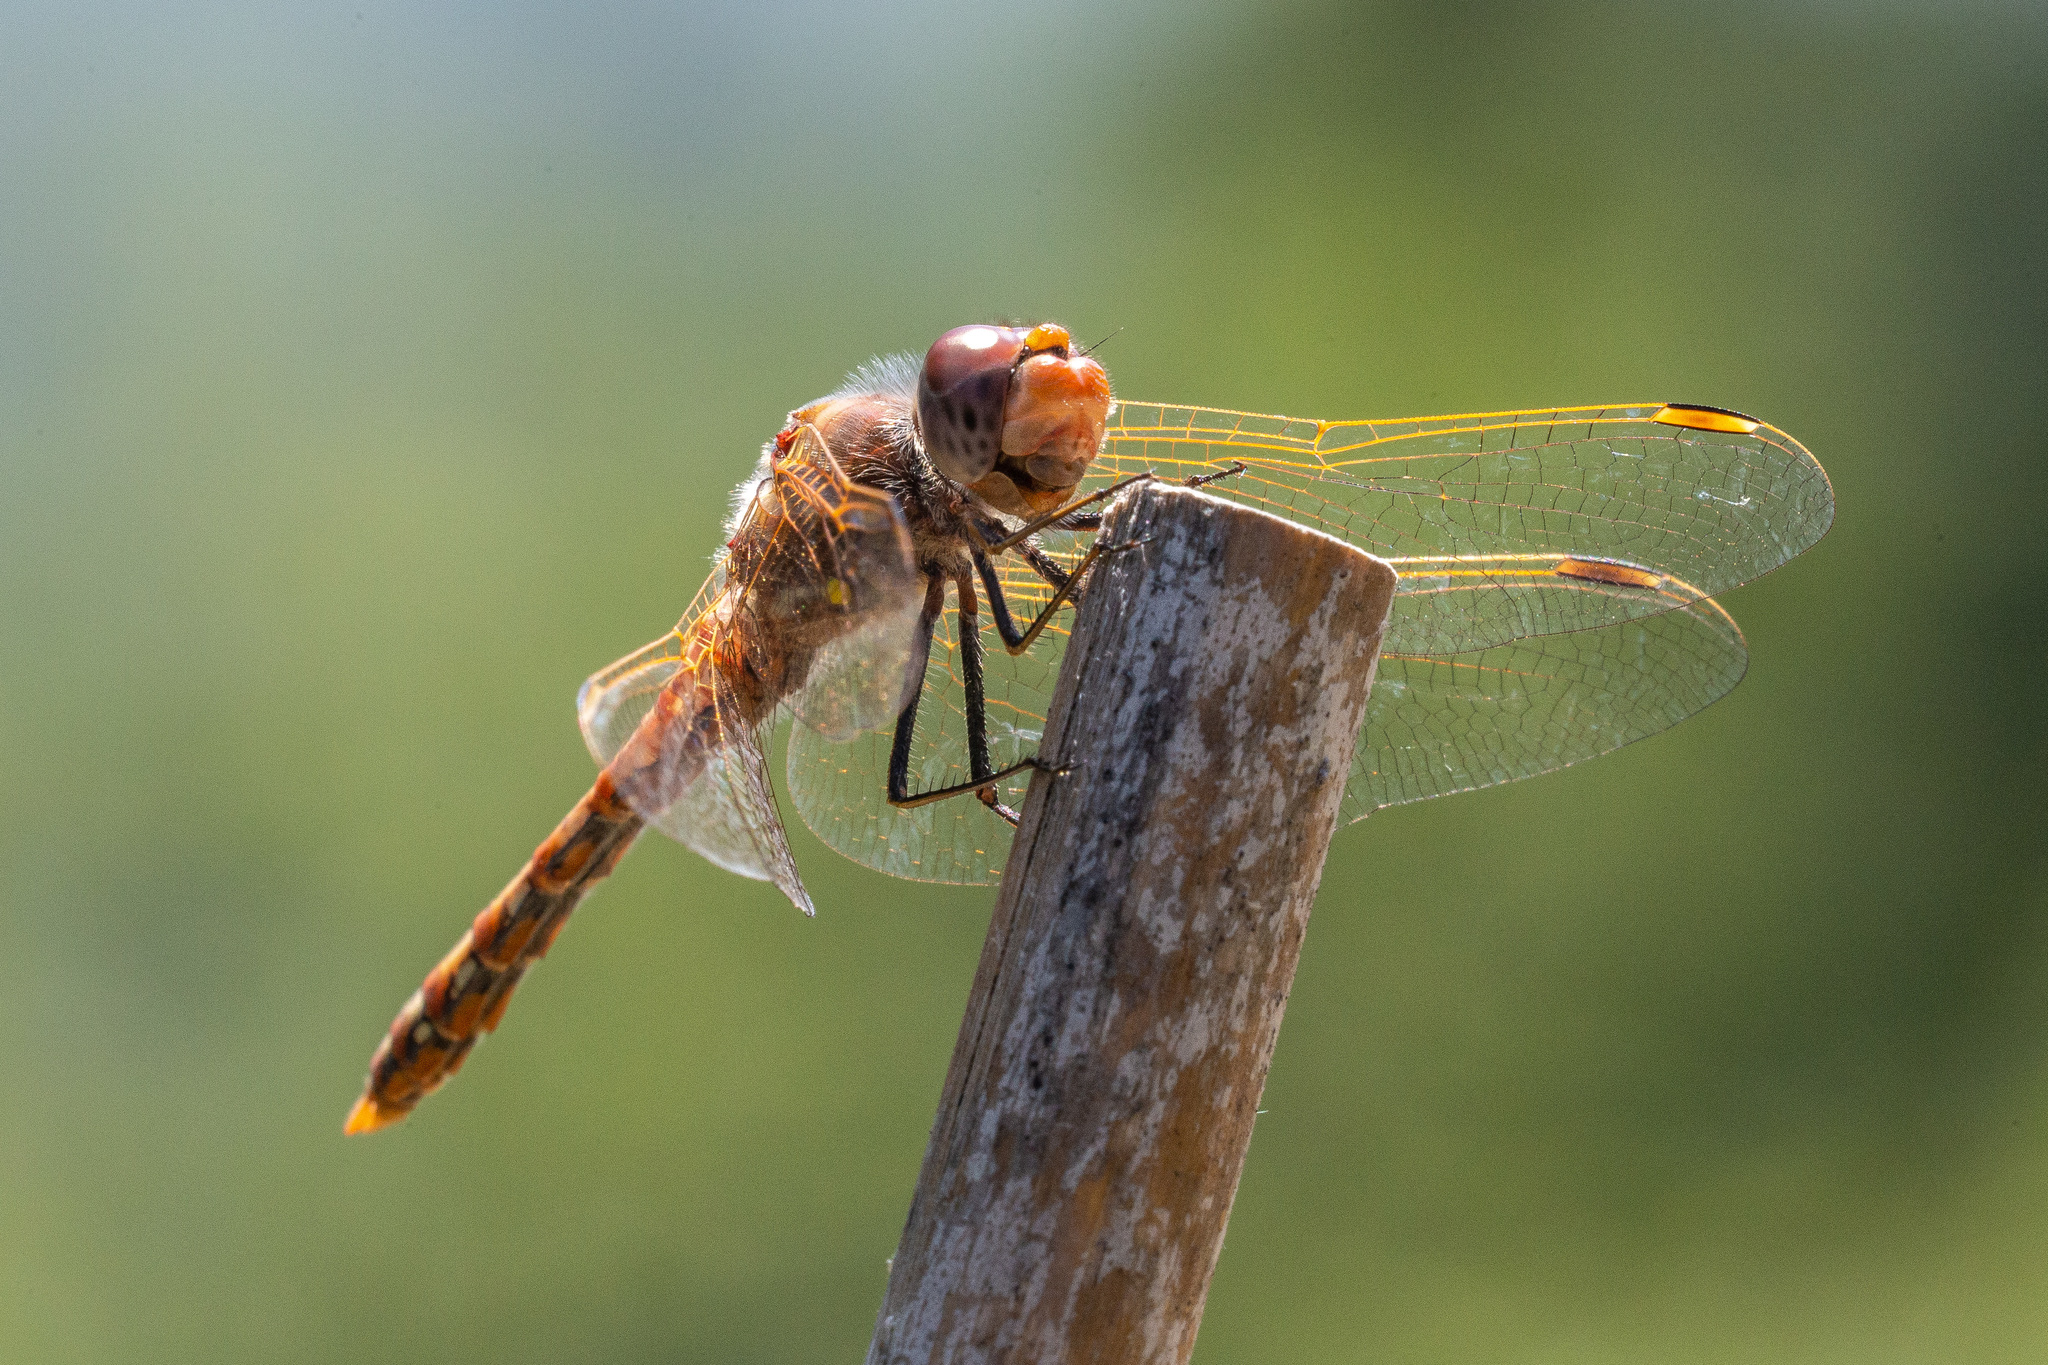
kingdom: Animalia
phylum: Arthropoda
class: Insecta
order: Odonata
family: Libellulidae
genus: Sympetrum
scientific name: Sympetrum corruptum
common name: Variegated meadowhawk
